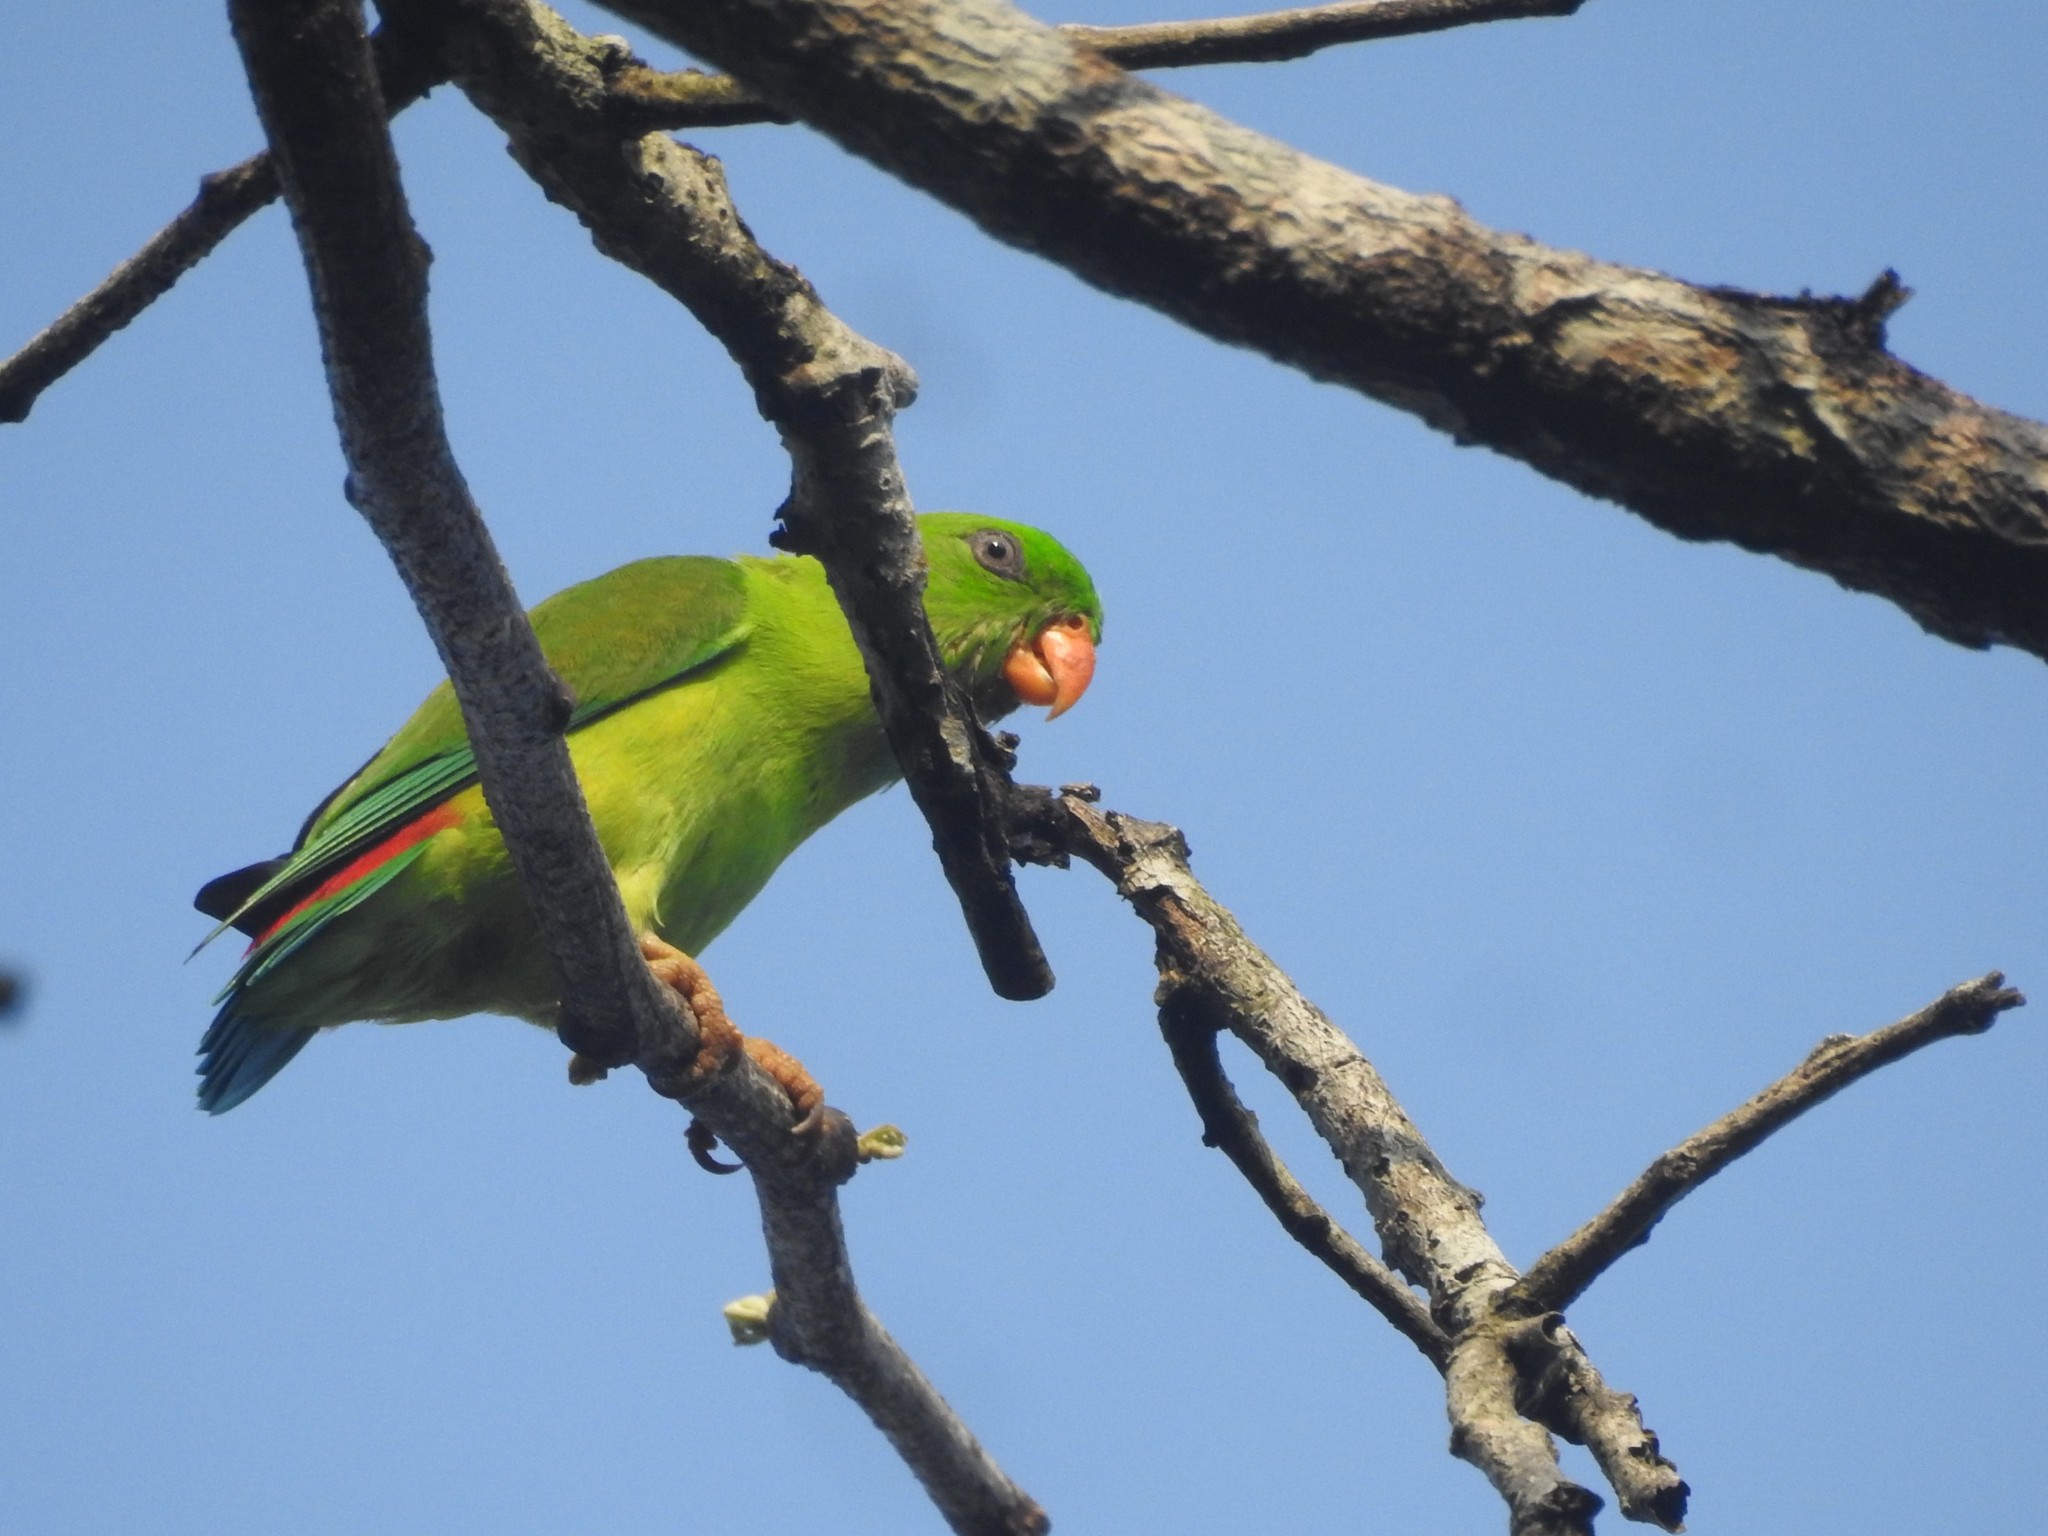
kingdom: Animalia
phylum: Chordata
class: Aves
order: Psittaciformes
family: Psittacidae
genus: Loriculus
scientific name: Loriculus vernalis
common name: Vernal hanging parrot
